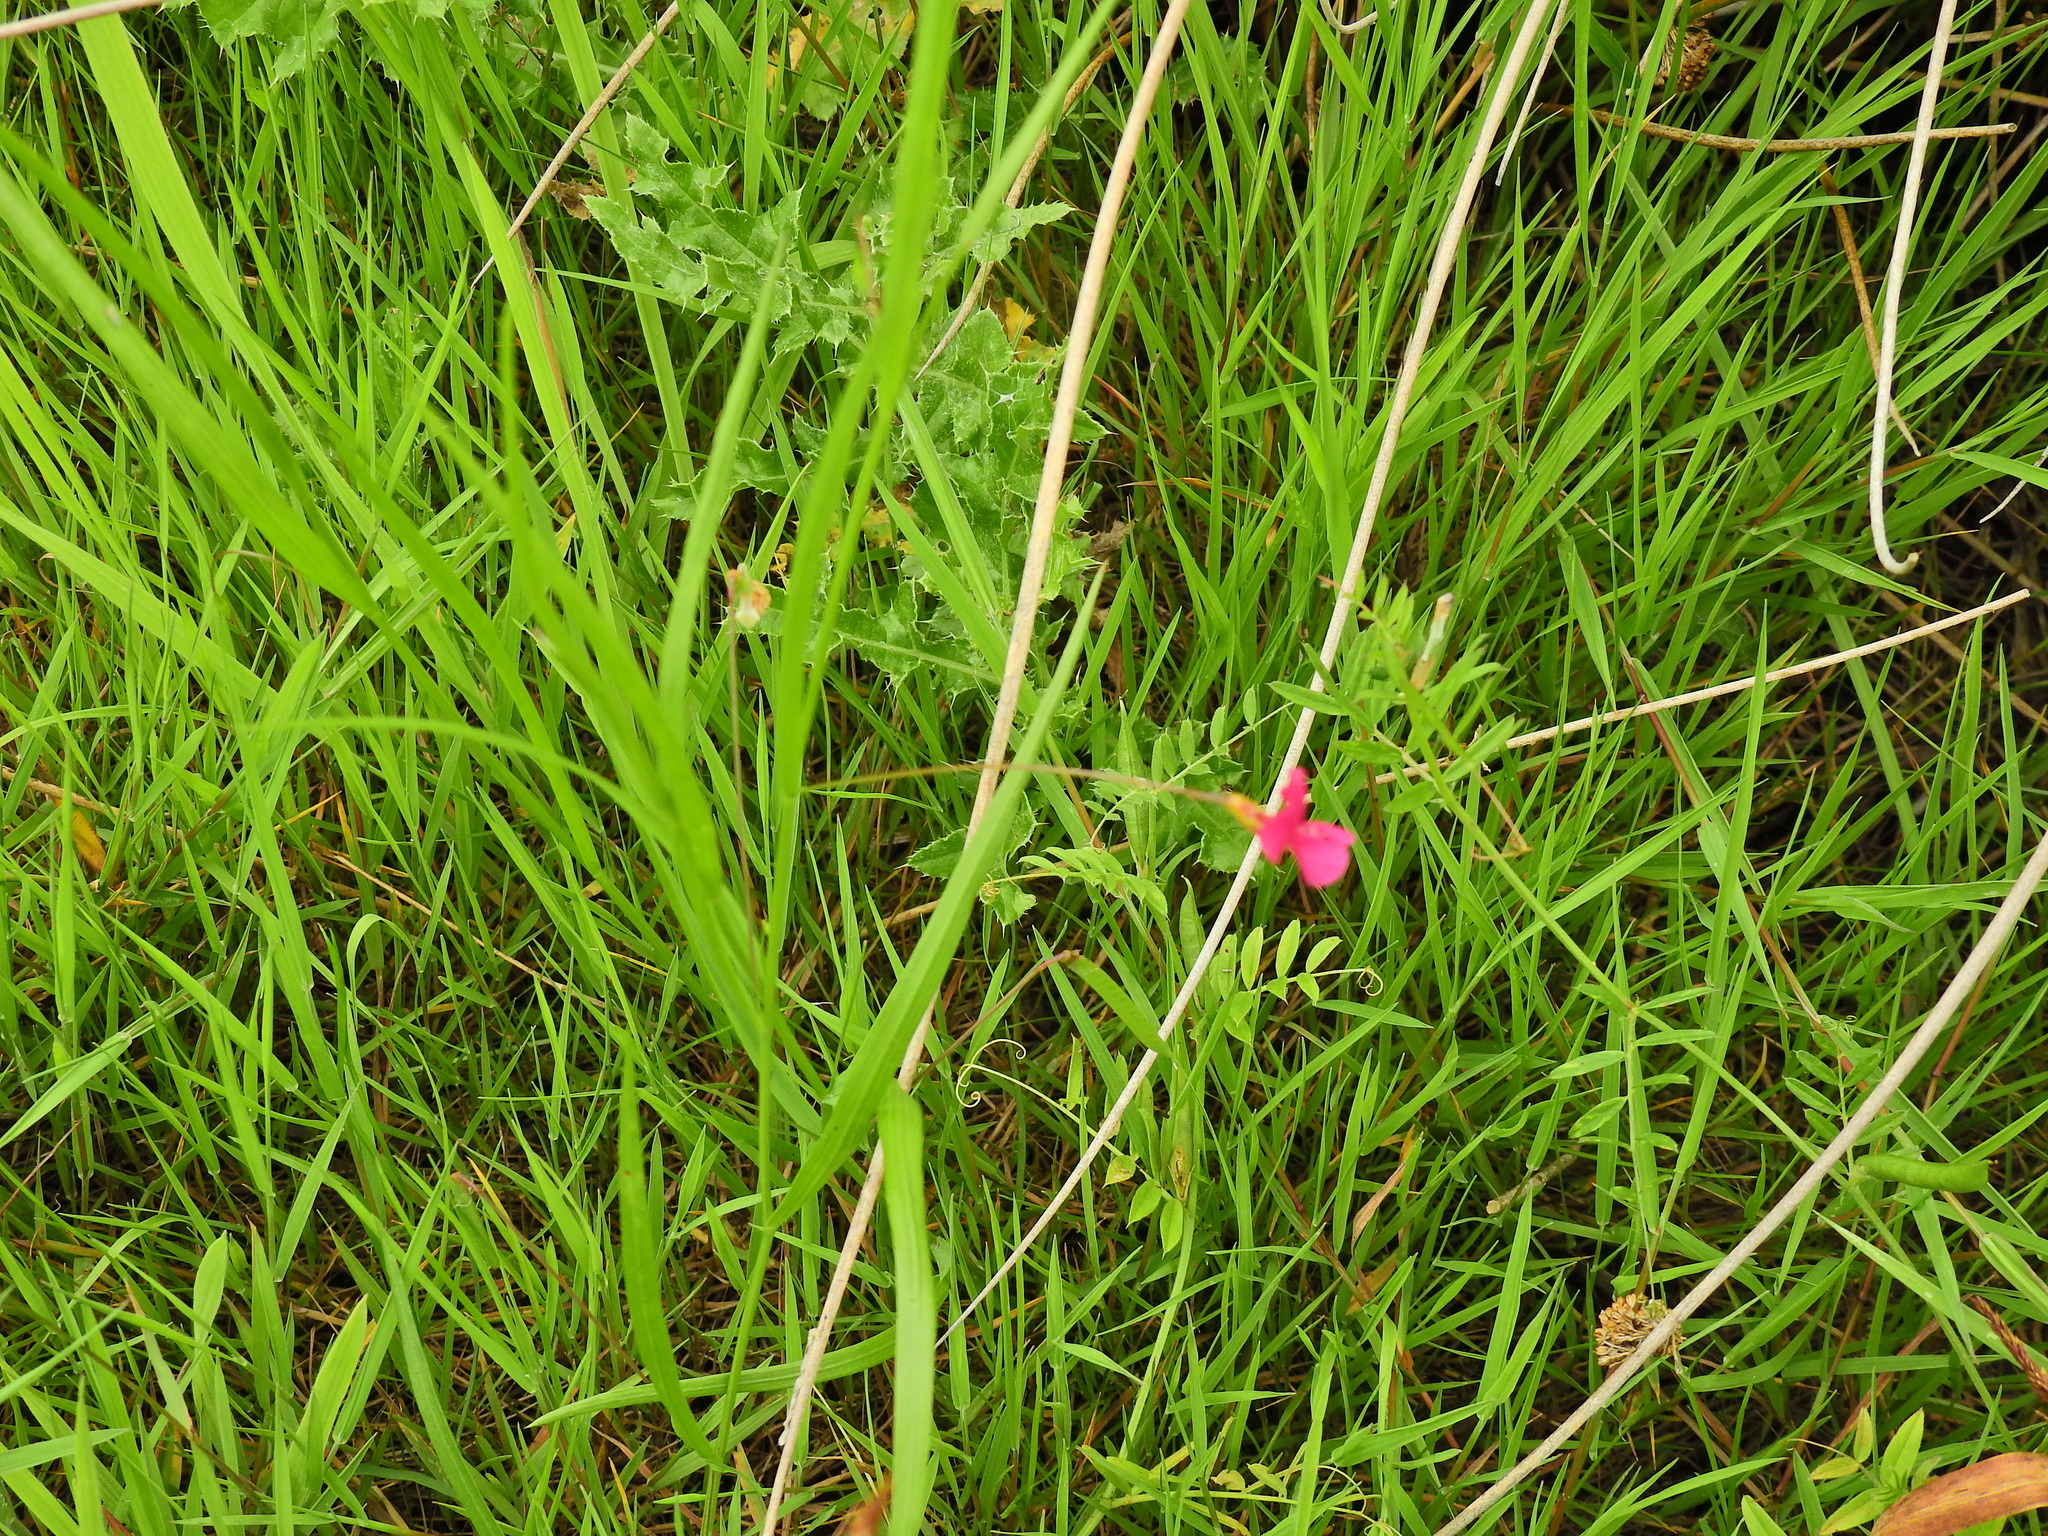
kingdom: Plantae
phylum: Tracheophyta
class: Magnoliopsida
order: Fabales
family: Fabaceae
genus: Lathyrus
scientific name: Lathyrus nissolia
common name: Grass vetchling
